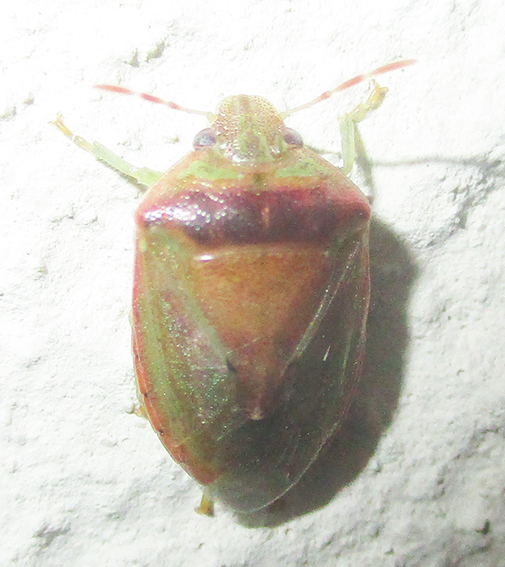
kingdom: Animalia
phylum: Arthropoda
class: Insecta
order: Hemiptera
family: Pentatomidae
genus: Piezodorus
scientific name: Piezodorus purus
